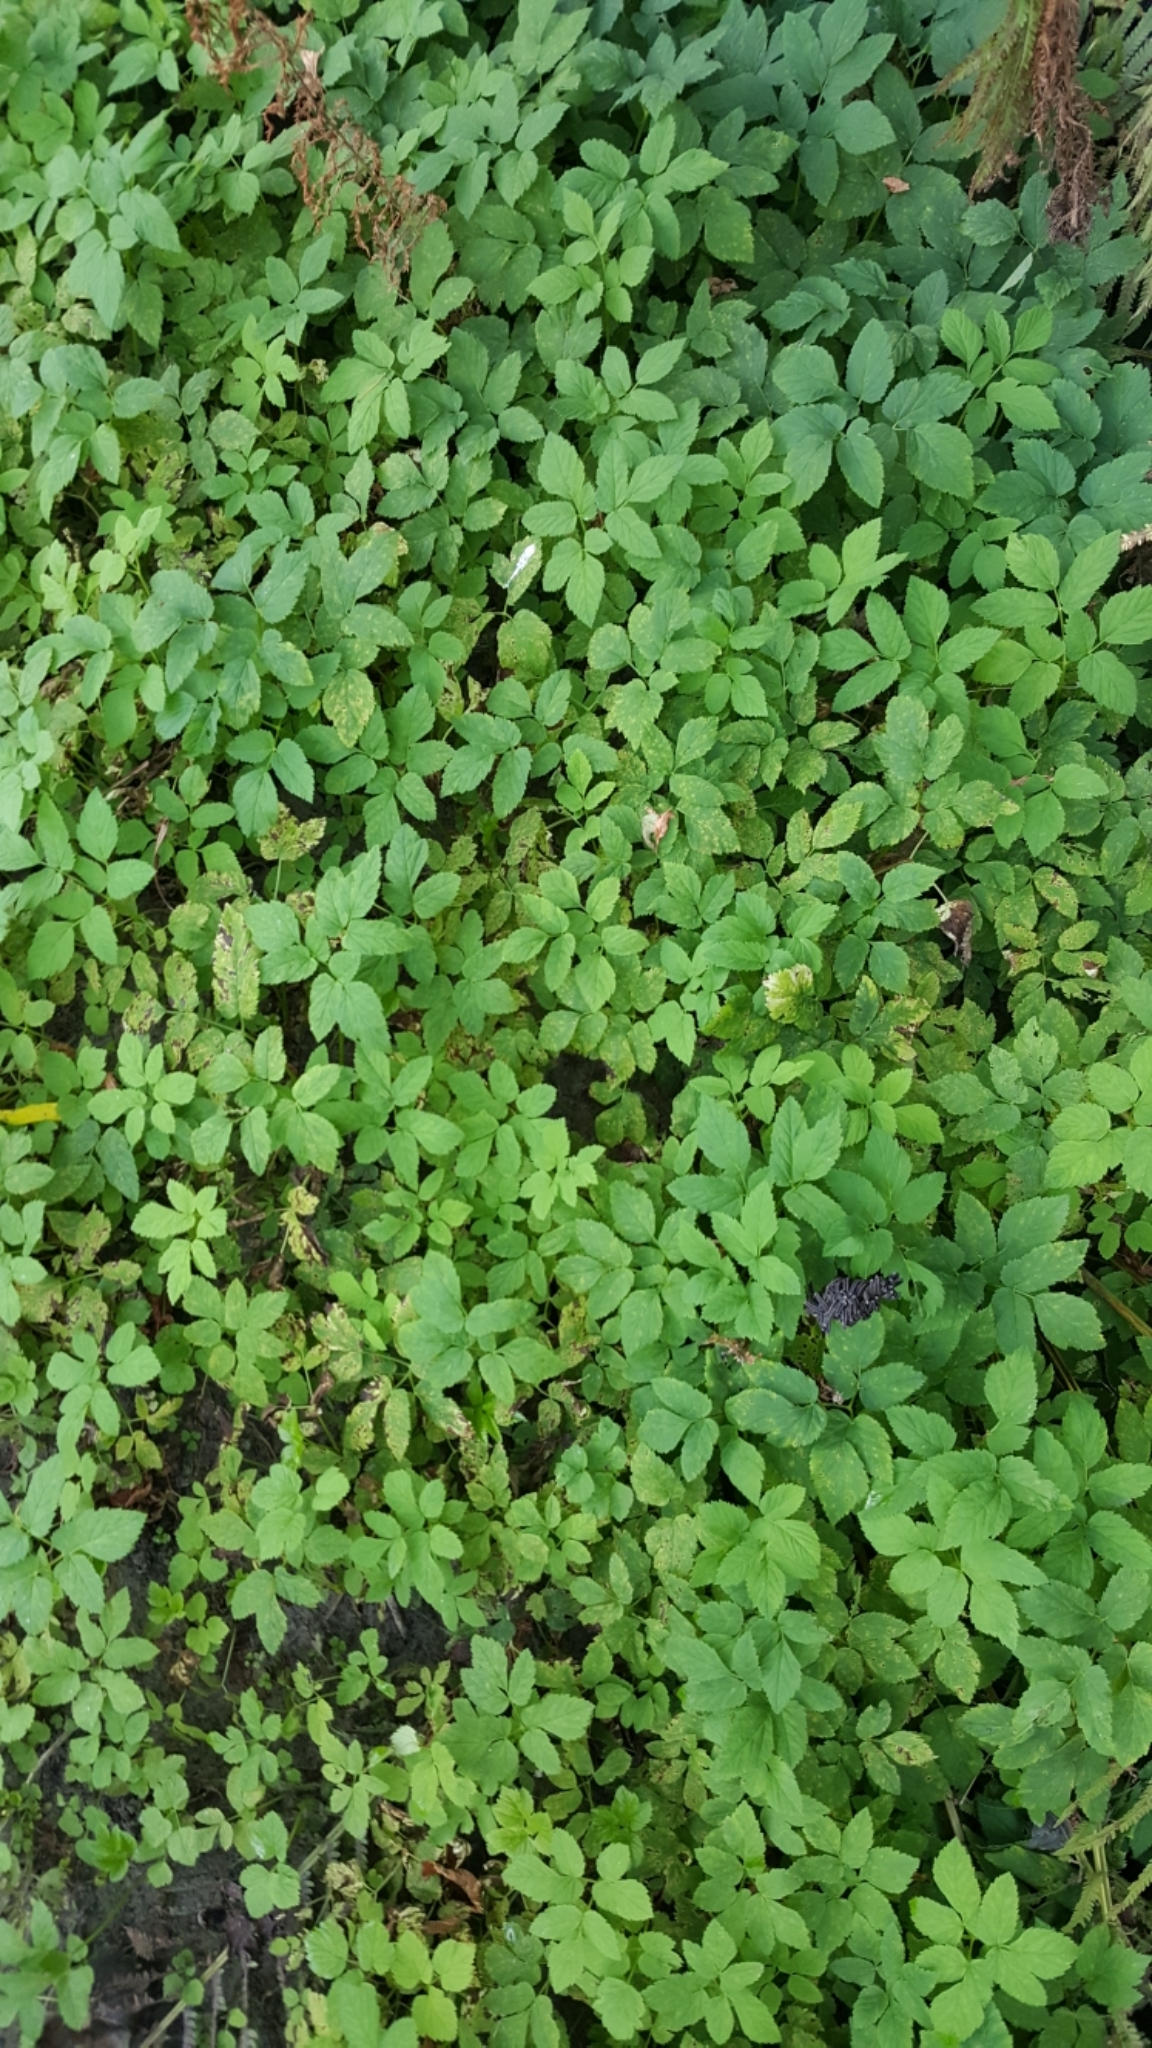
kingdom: Plantae
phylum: Tracheophyta
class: Magnoliopsida
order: Apiales
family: Apiaceae
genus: Aegopodium
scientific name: Aegopodium podagraria
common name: Ground-elder
